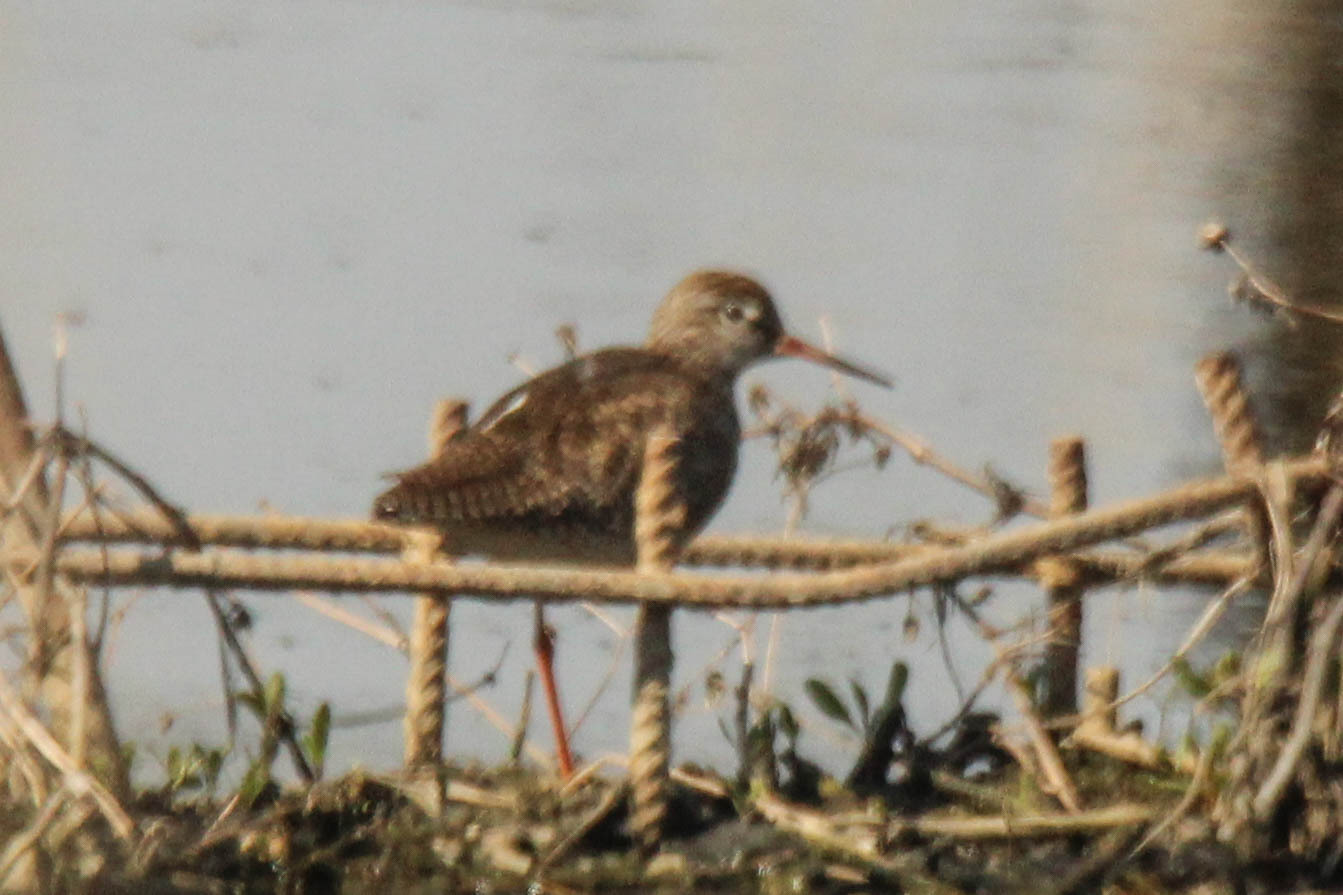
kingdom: Animalia
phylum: Chordata
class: Aves
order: Charadriiformes
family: Scolopacidae
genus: Tringa
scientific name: Tringa totanus
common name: Common redshank
